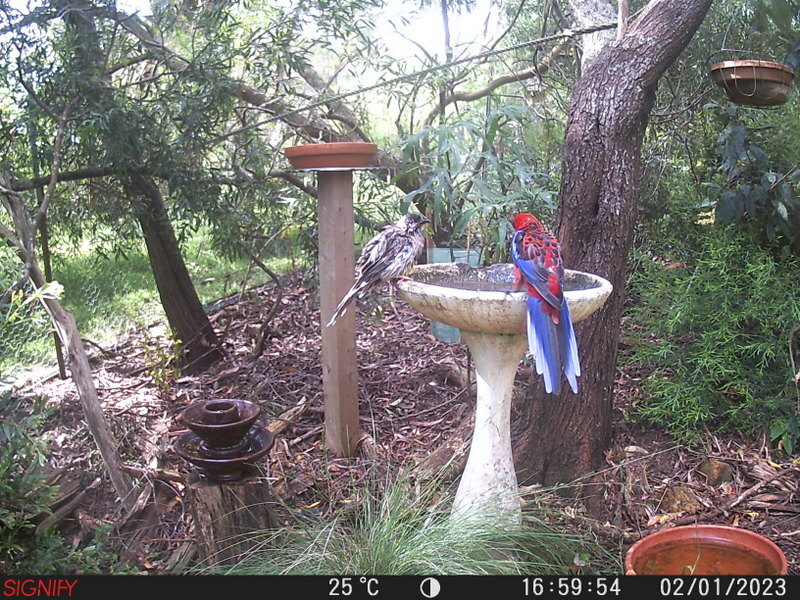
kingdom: Animalia
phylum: Chordata
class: Aves
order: Psittaciformes
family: Psittacidae
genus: Platycercus
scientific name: Platycercus elegans
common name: Crimson rosella
